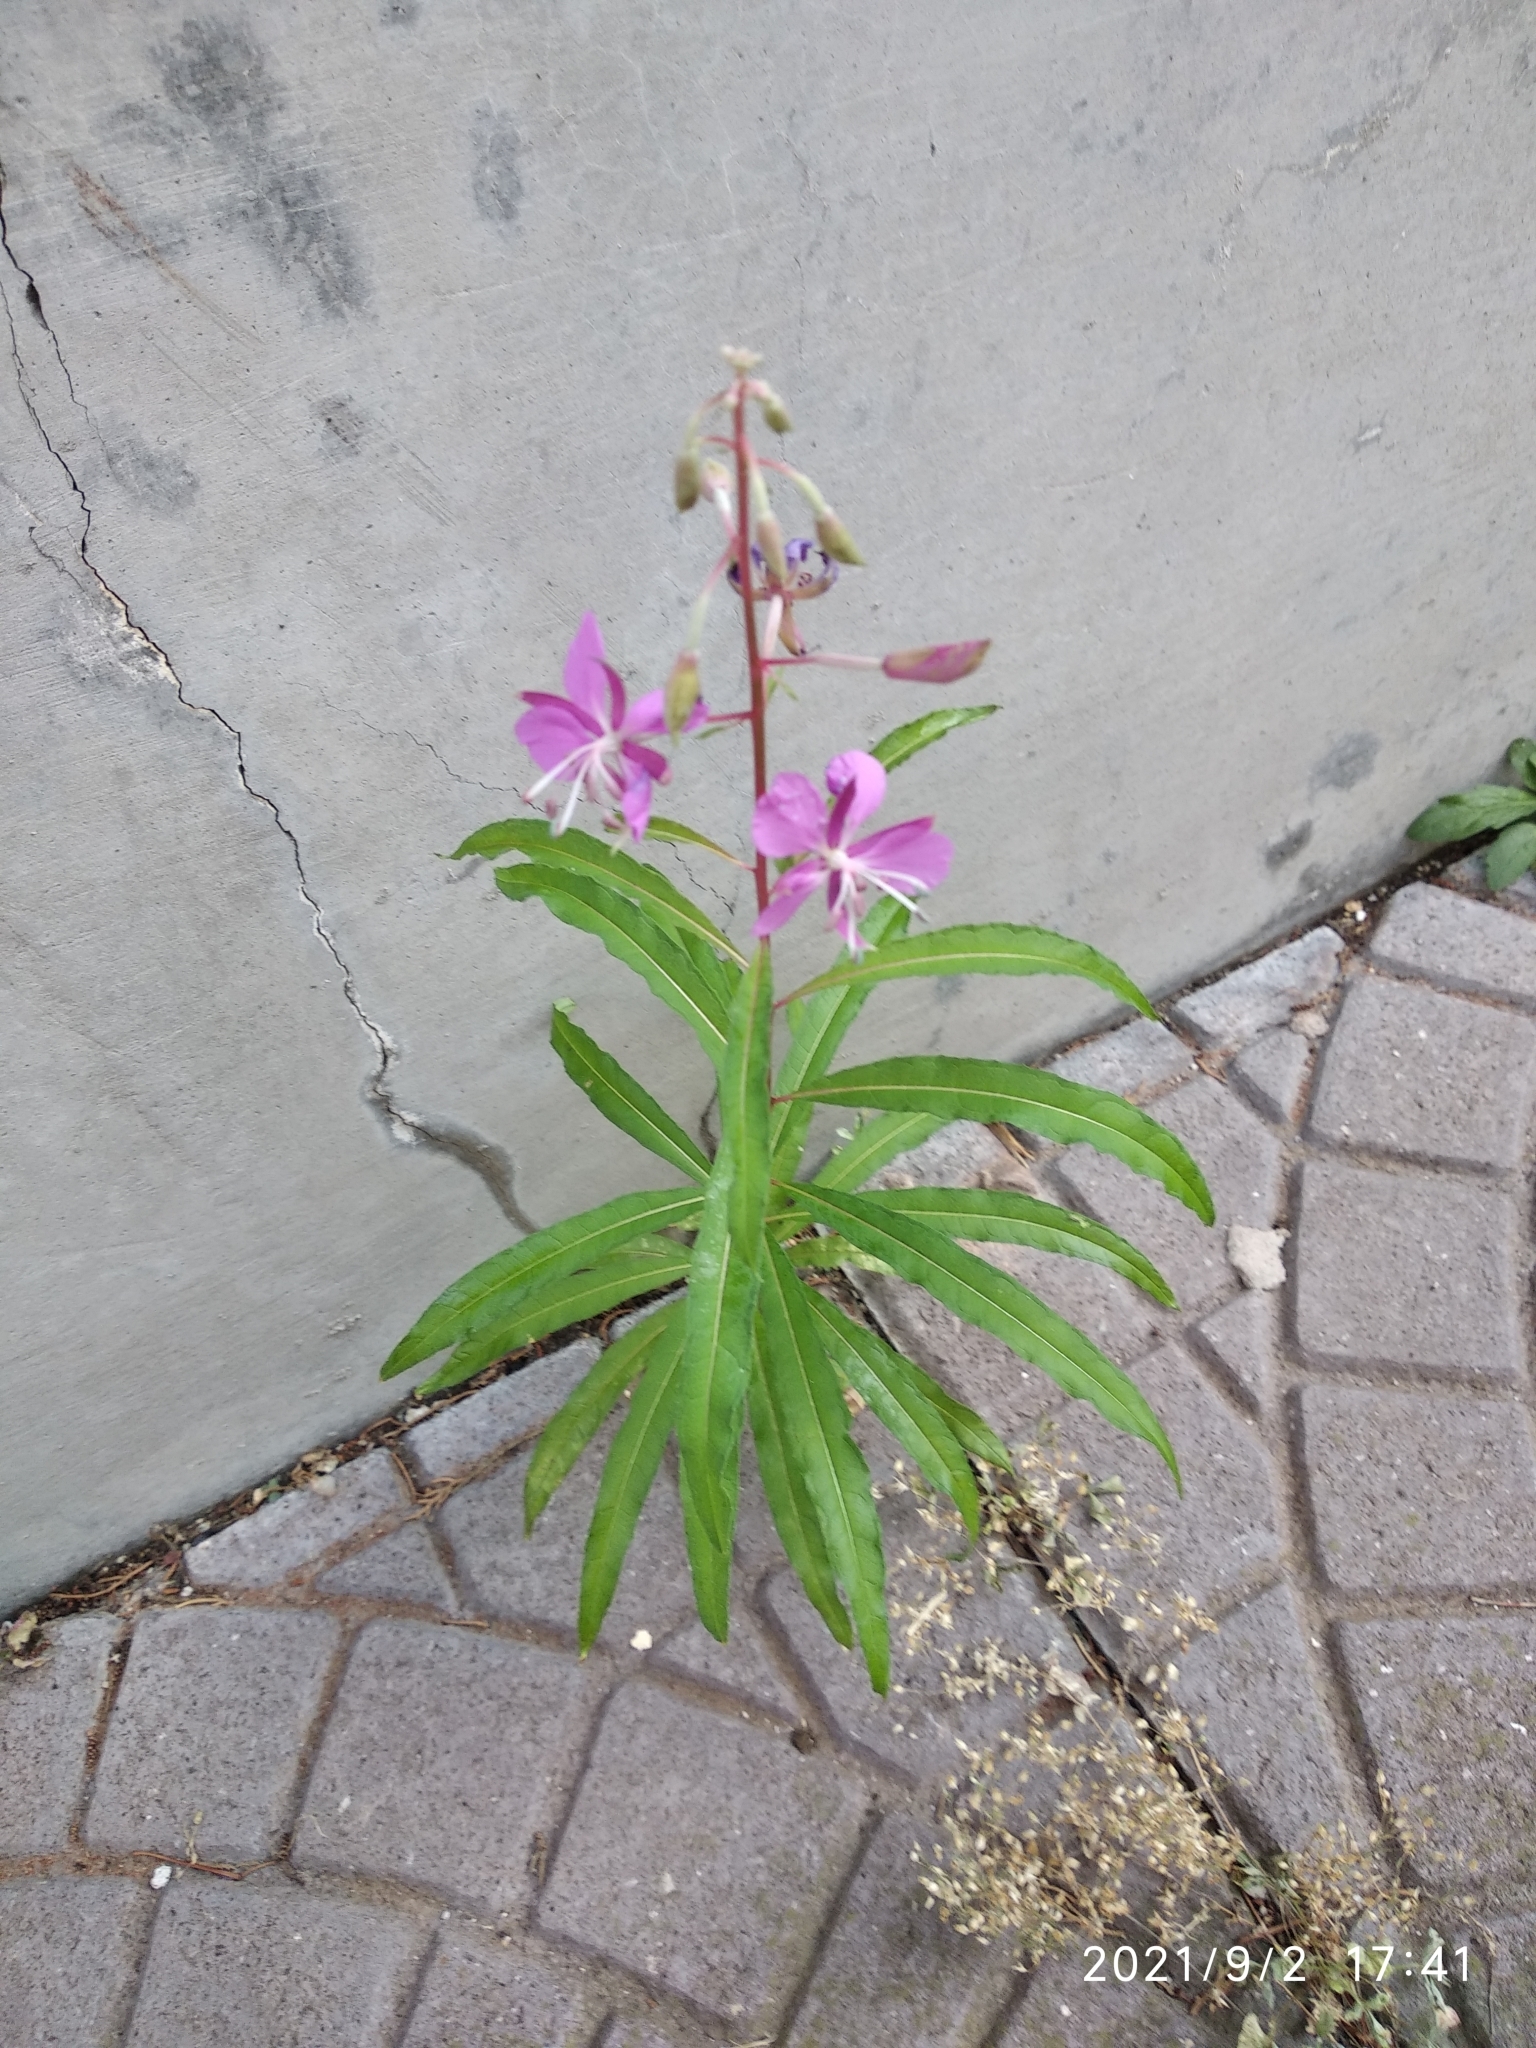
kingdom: Plantae
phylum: Tracheophyta
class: Magnoliopsida
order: Myrtales
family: Onagraceae
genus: Chamaenerion
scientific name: Chamaenerion angustifolium
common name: Fireweed
